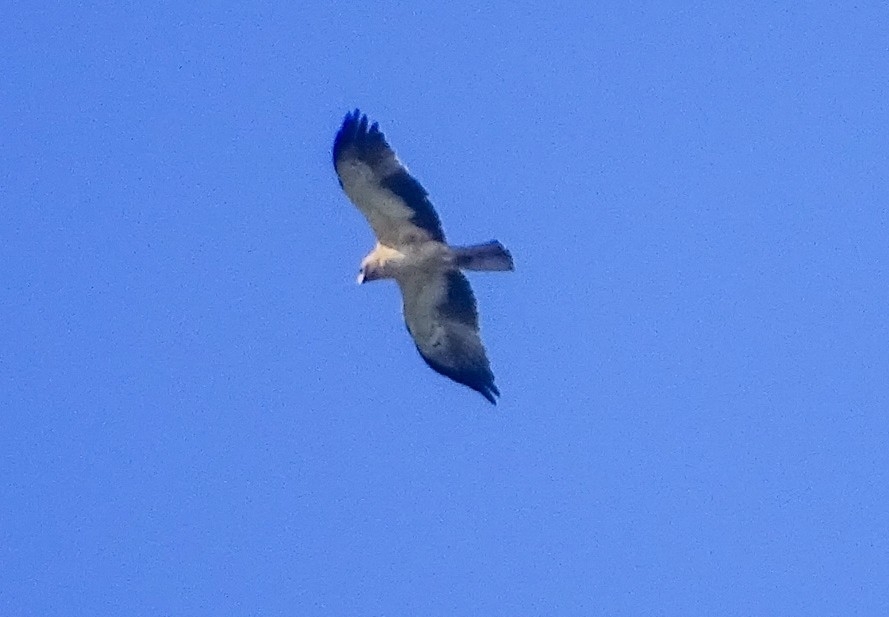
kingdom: Animalia
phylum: Chordata
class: Aves
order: Accipitriformes
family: Accipitridae
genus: Hieraaetus
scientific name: Hieraaetus pennatus
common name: Booted eagle
